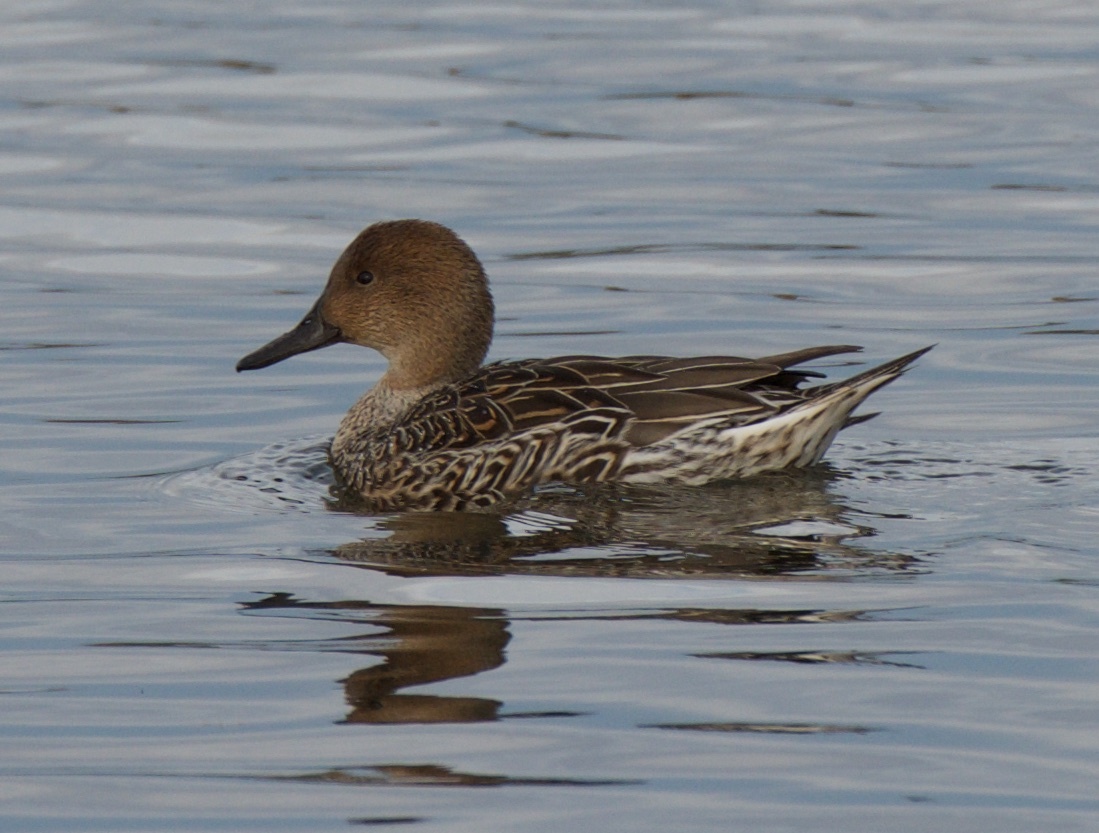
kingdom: Animalia
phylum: Chordata
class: Aves
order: Anseriformes
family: Anatidae
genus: Anas
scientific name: Anas acuta
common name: Northern pintail
